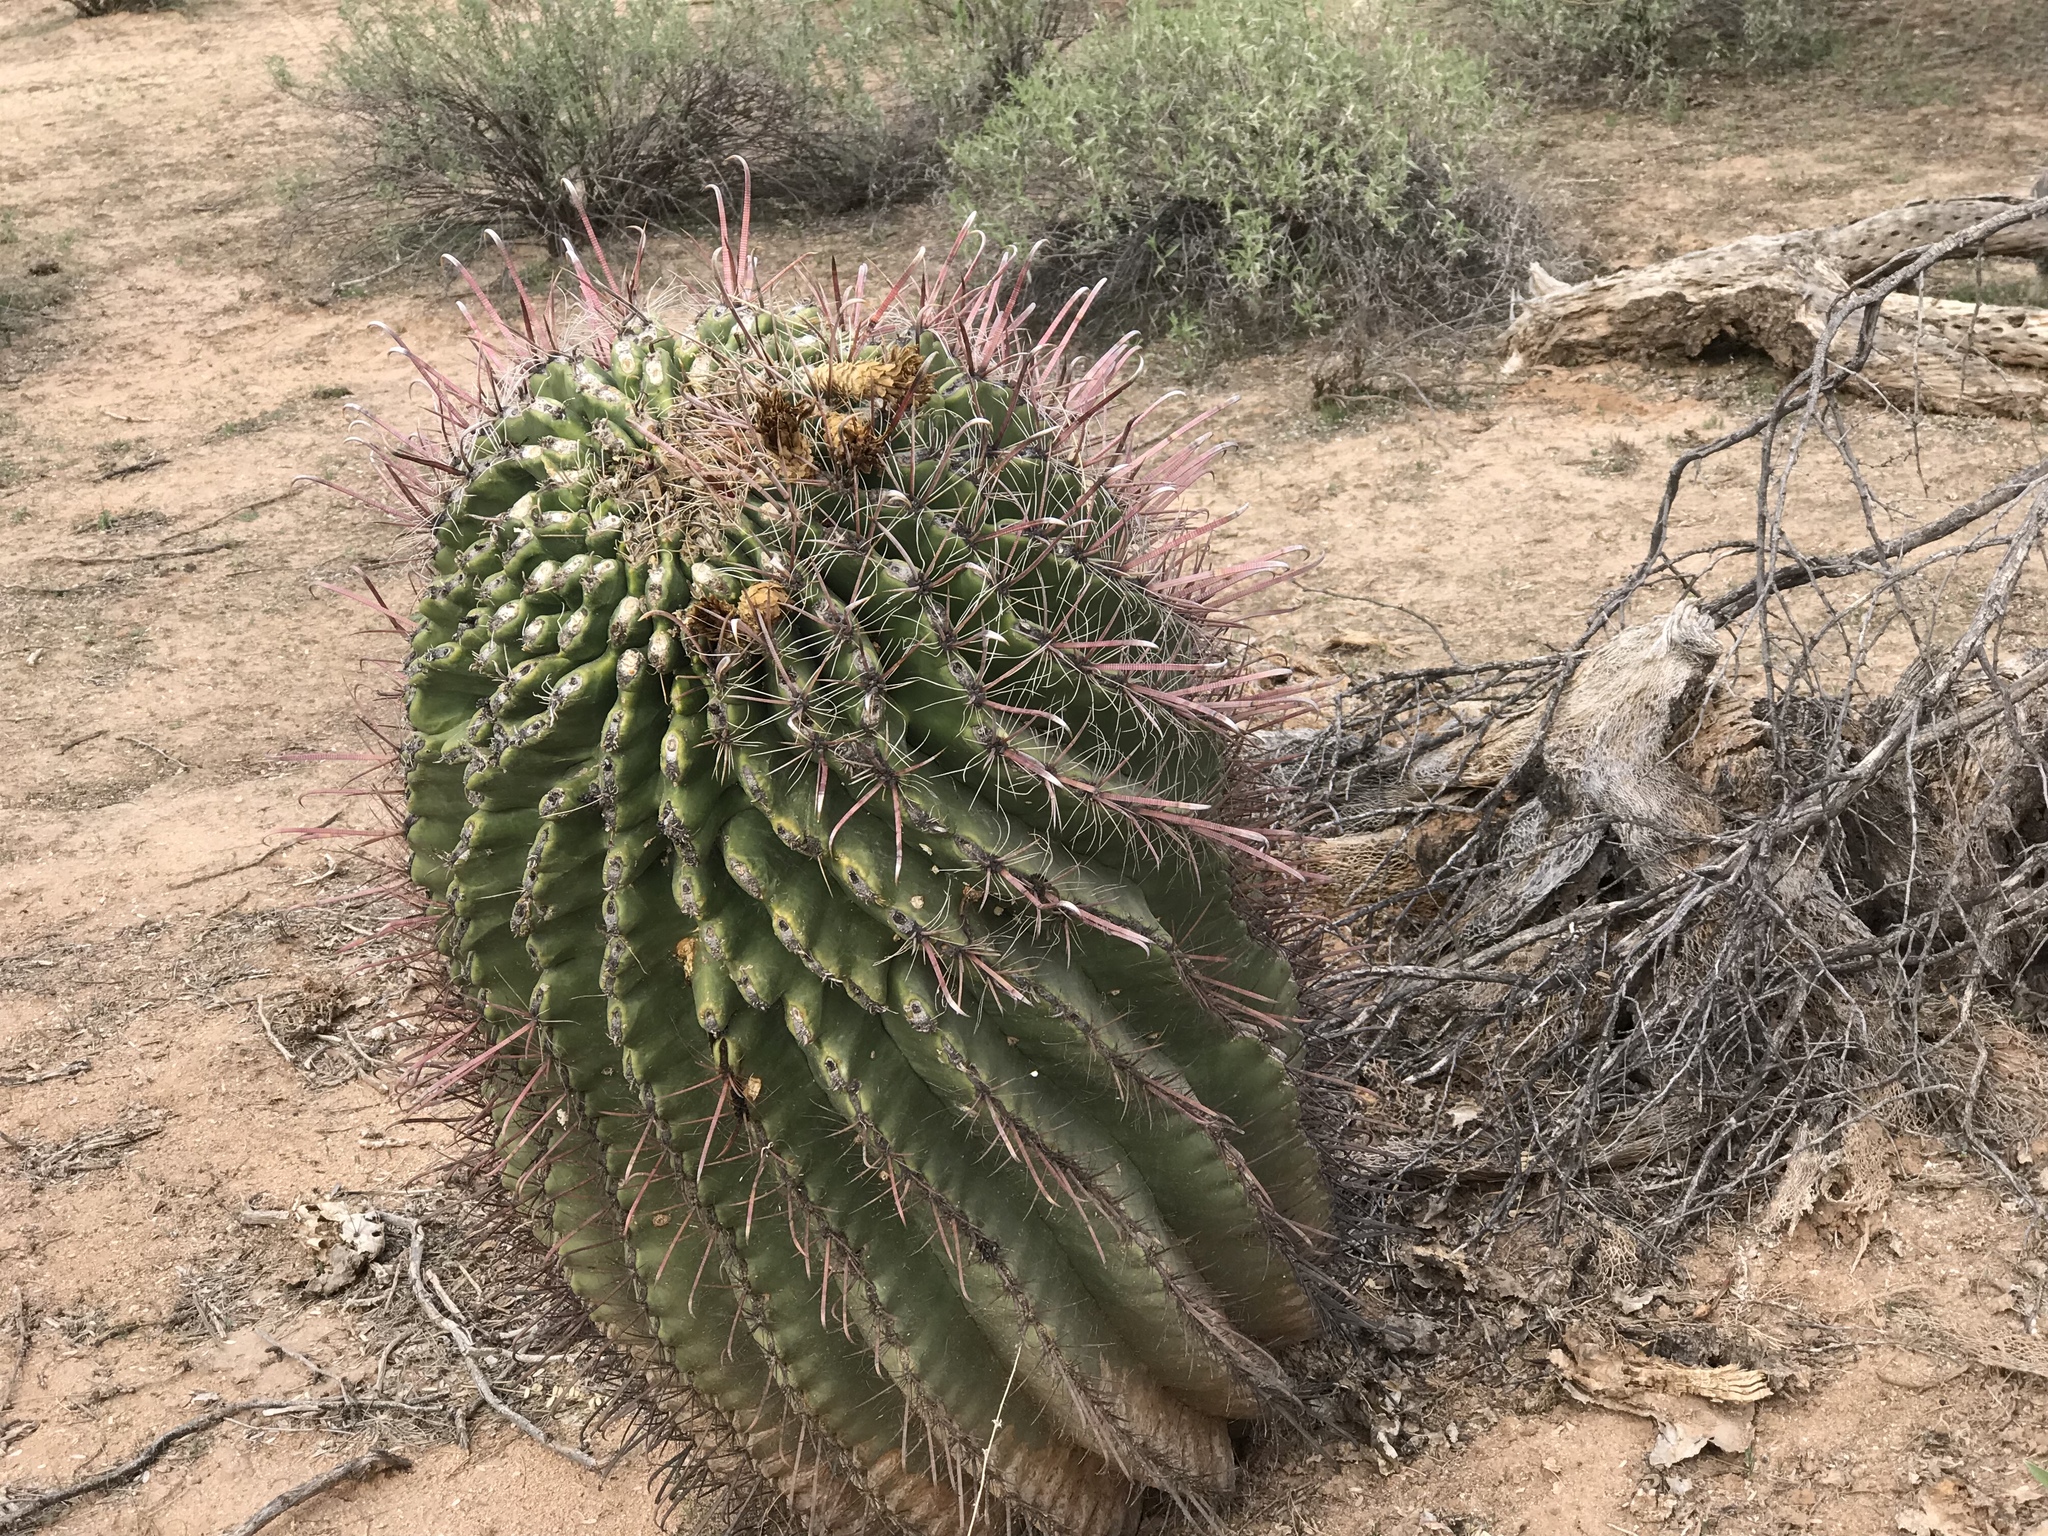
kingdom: Plantae
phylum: Tracheophyta
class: Magnoliopsida
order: Caryophyllales
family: Cactaceae
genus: Ferocactus
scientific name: Ferocactus wislizeni
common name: Candy barrel cactus
